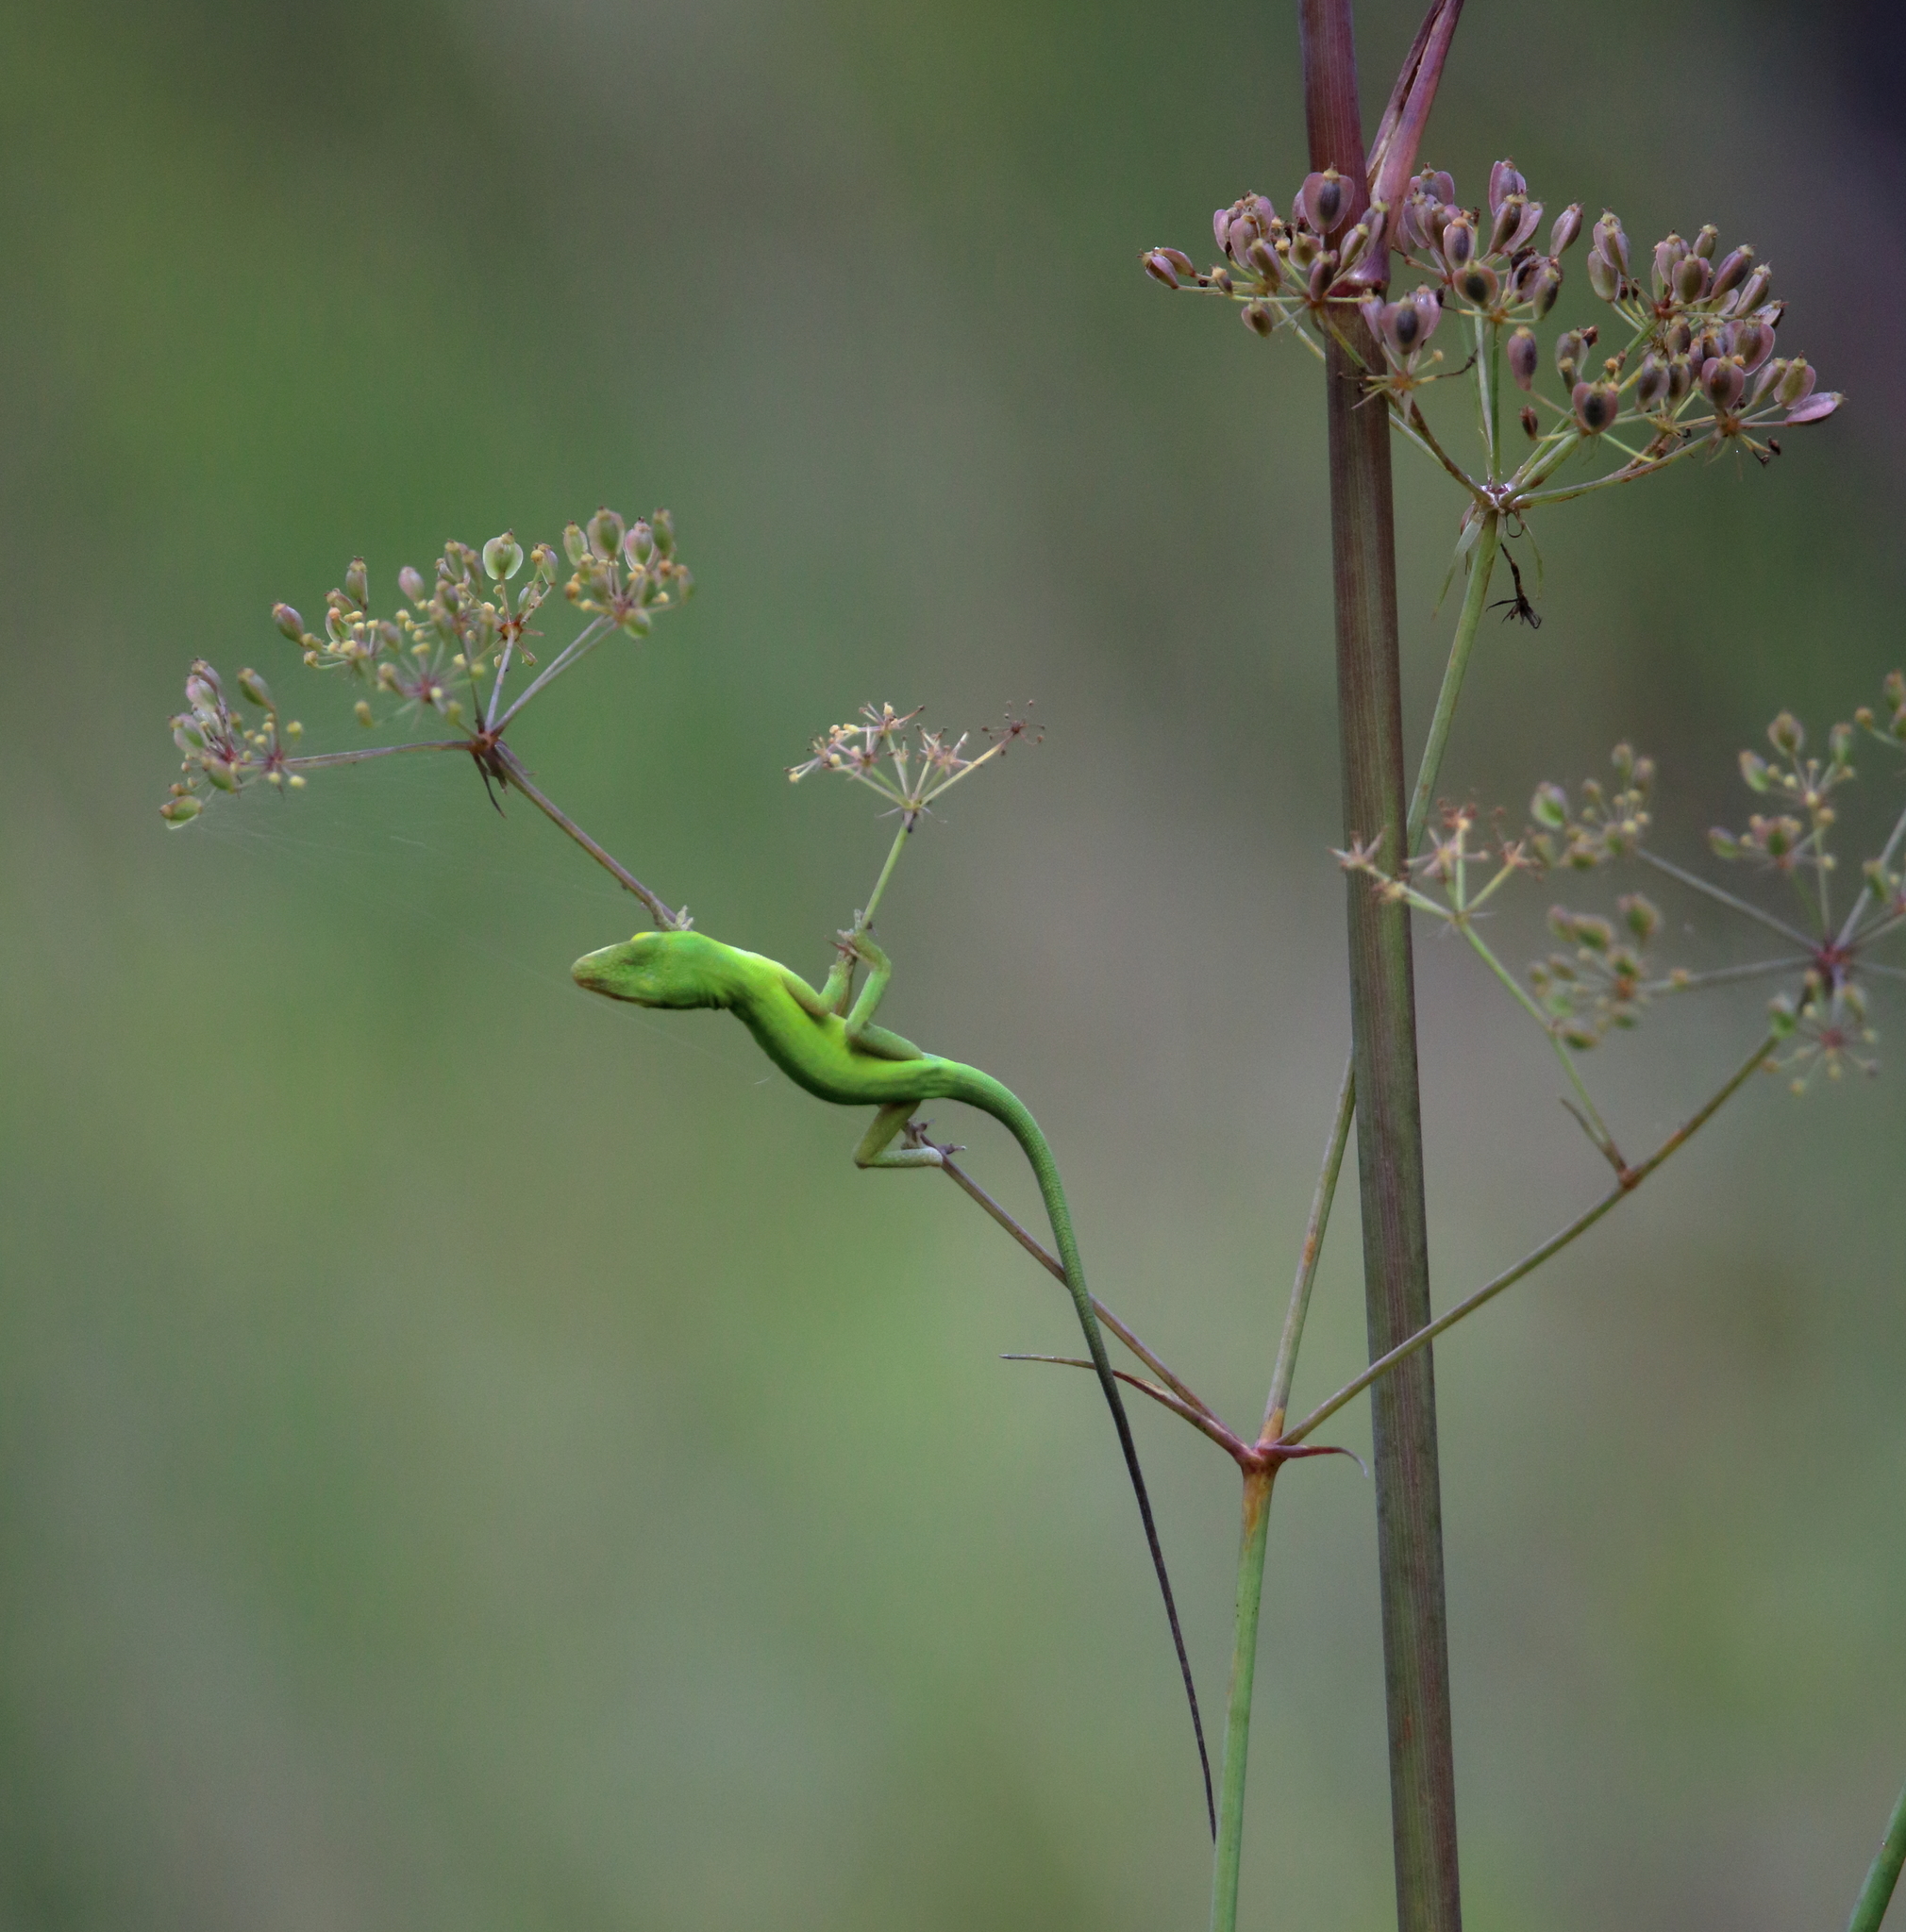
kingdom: Animalia
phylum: Chordata
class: Squamata
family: Dactyloidae
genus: Anolis
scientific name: Anolis carolinensis
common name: Green anole
